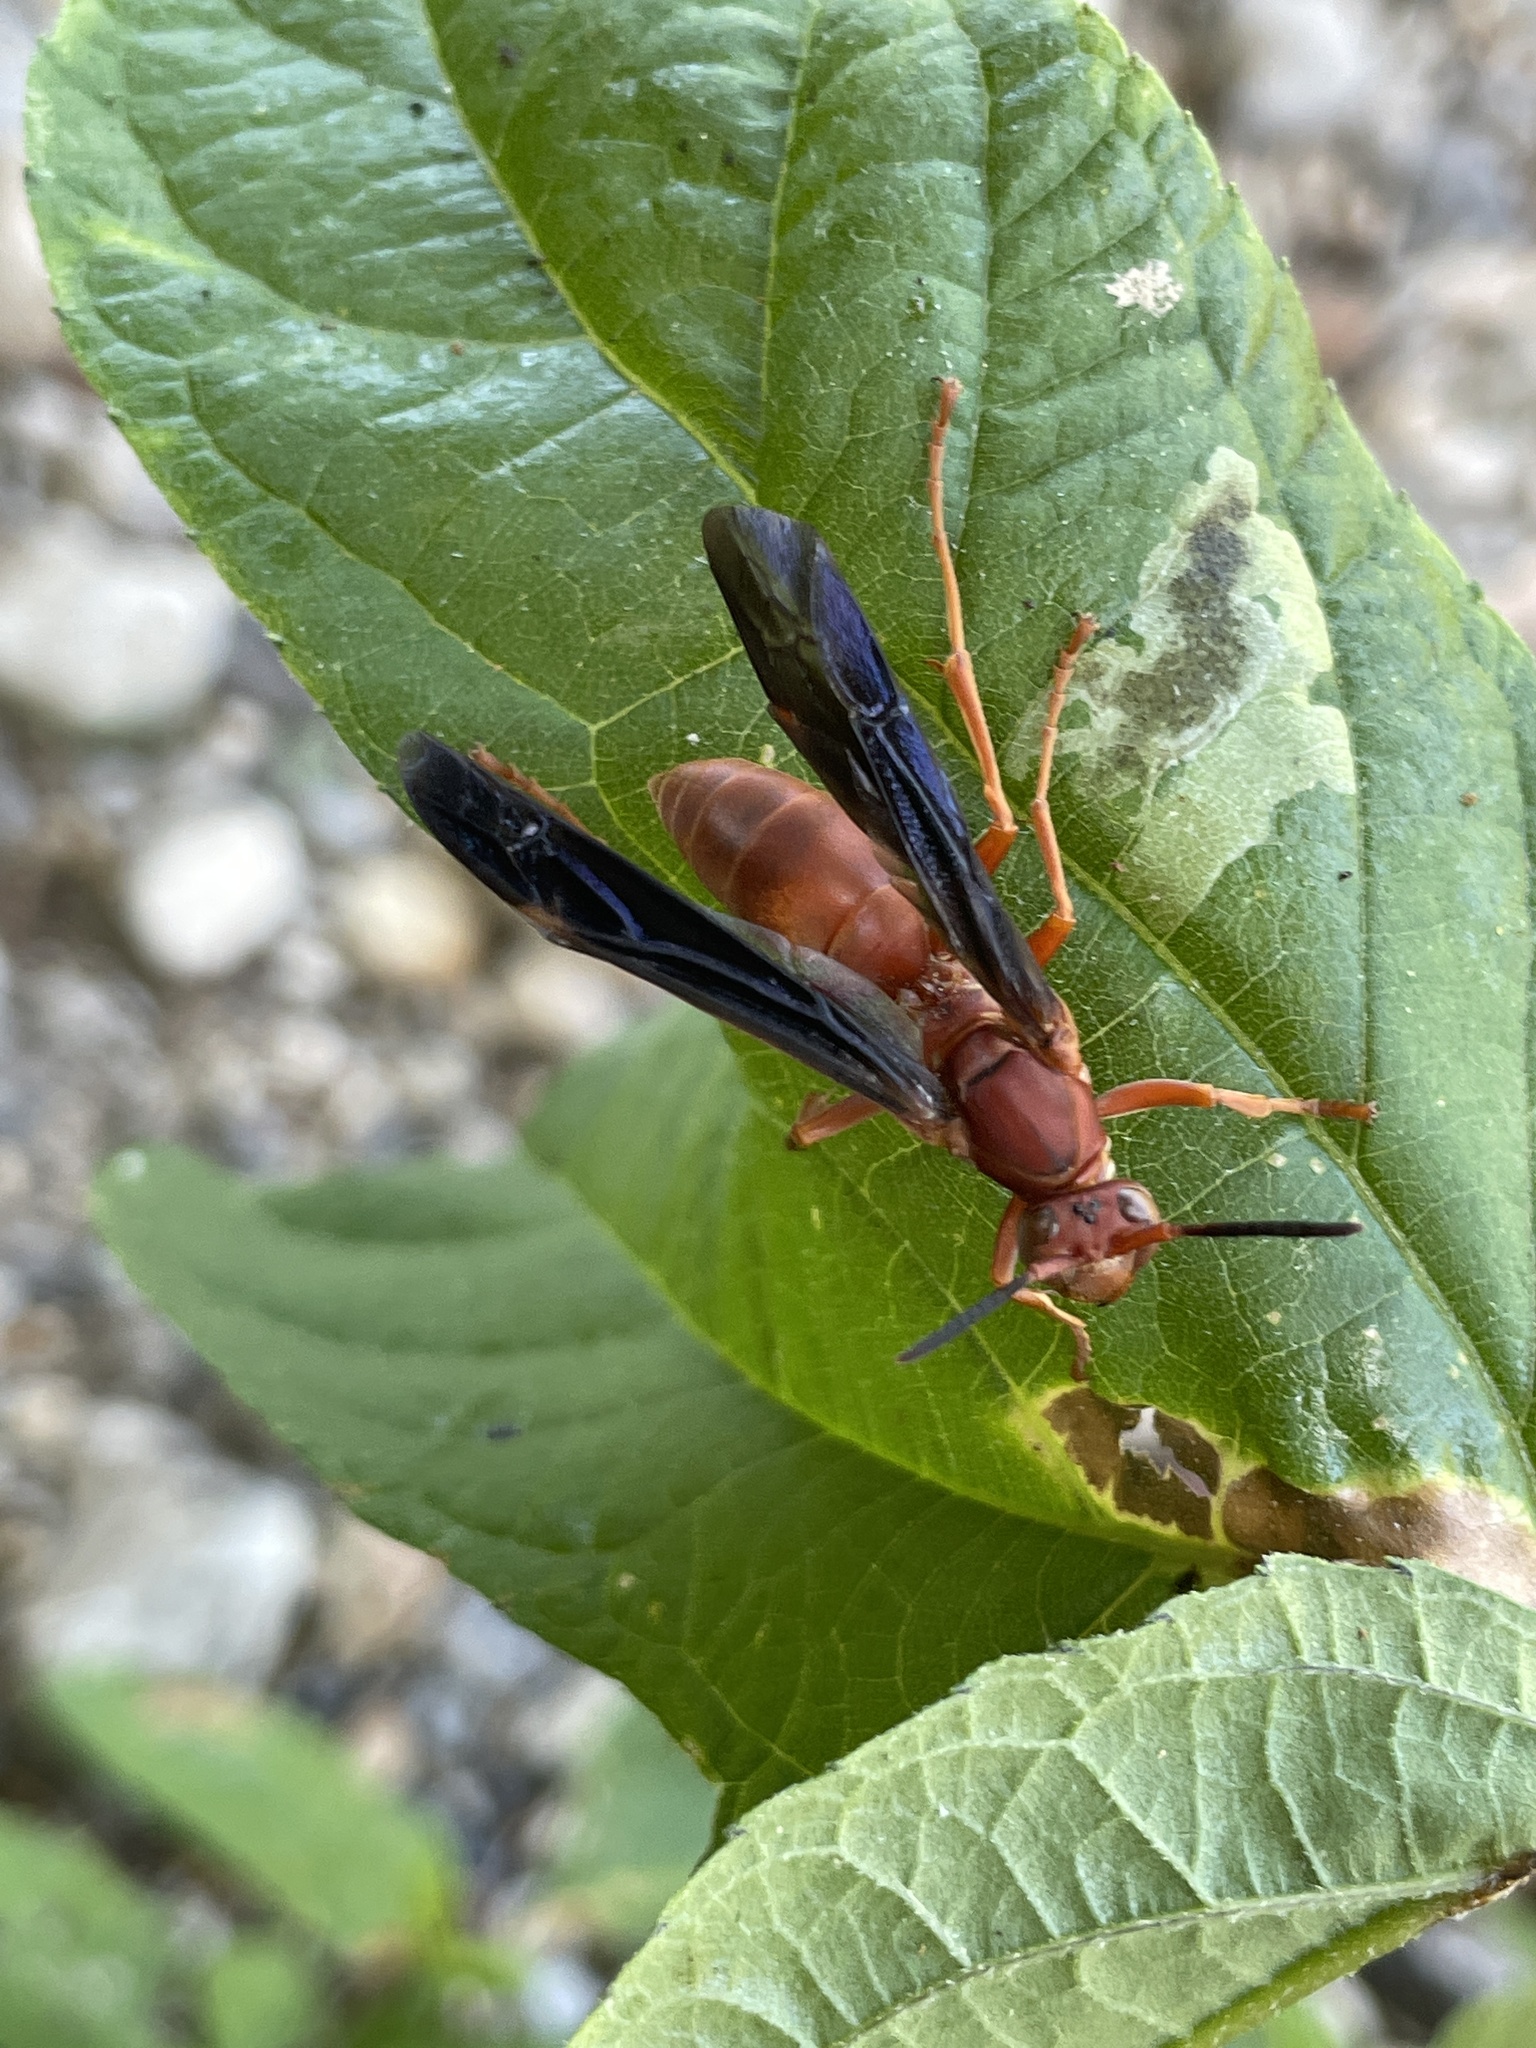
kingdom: Animalia
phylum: Arthropoda
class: Insecta
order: Hymenoptera
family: Vespidae
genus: Fuscopolistes
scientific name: Fuscopolistes
